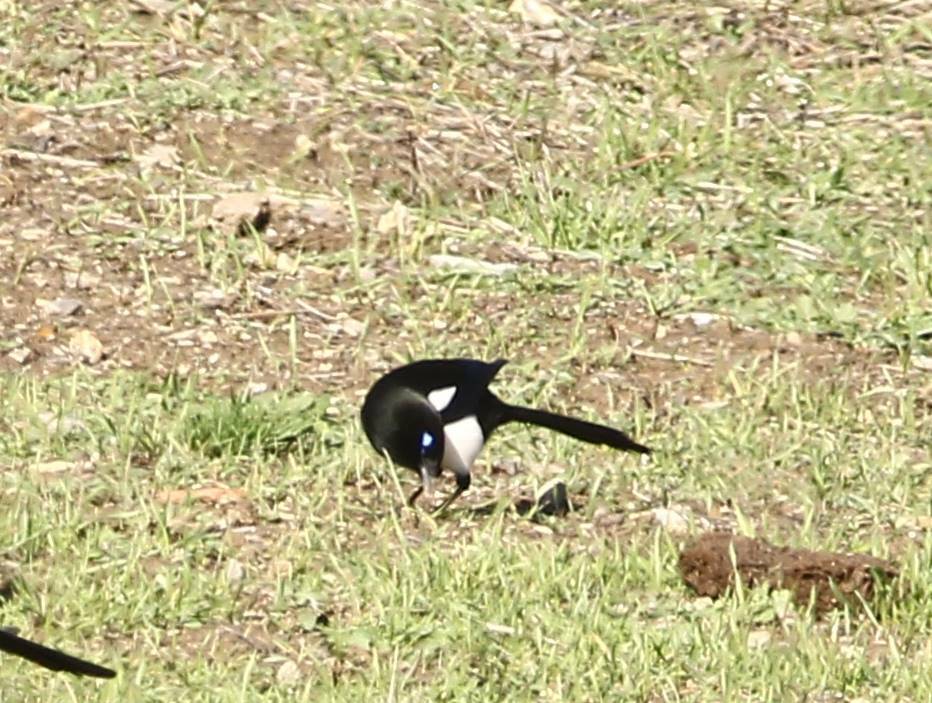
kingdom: Animalia
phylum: Chordata
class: Aves
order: Passeriformes
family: Corvidae
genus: Pica
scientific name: Pica mauritanica
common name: Maghreb magpie
